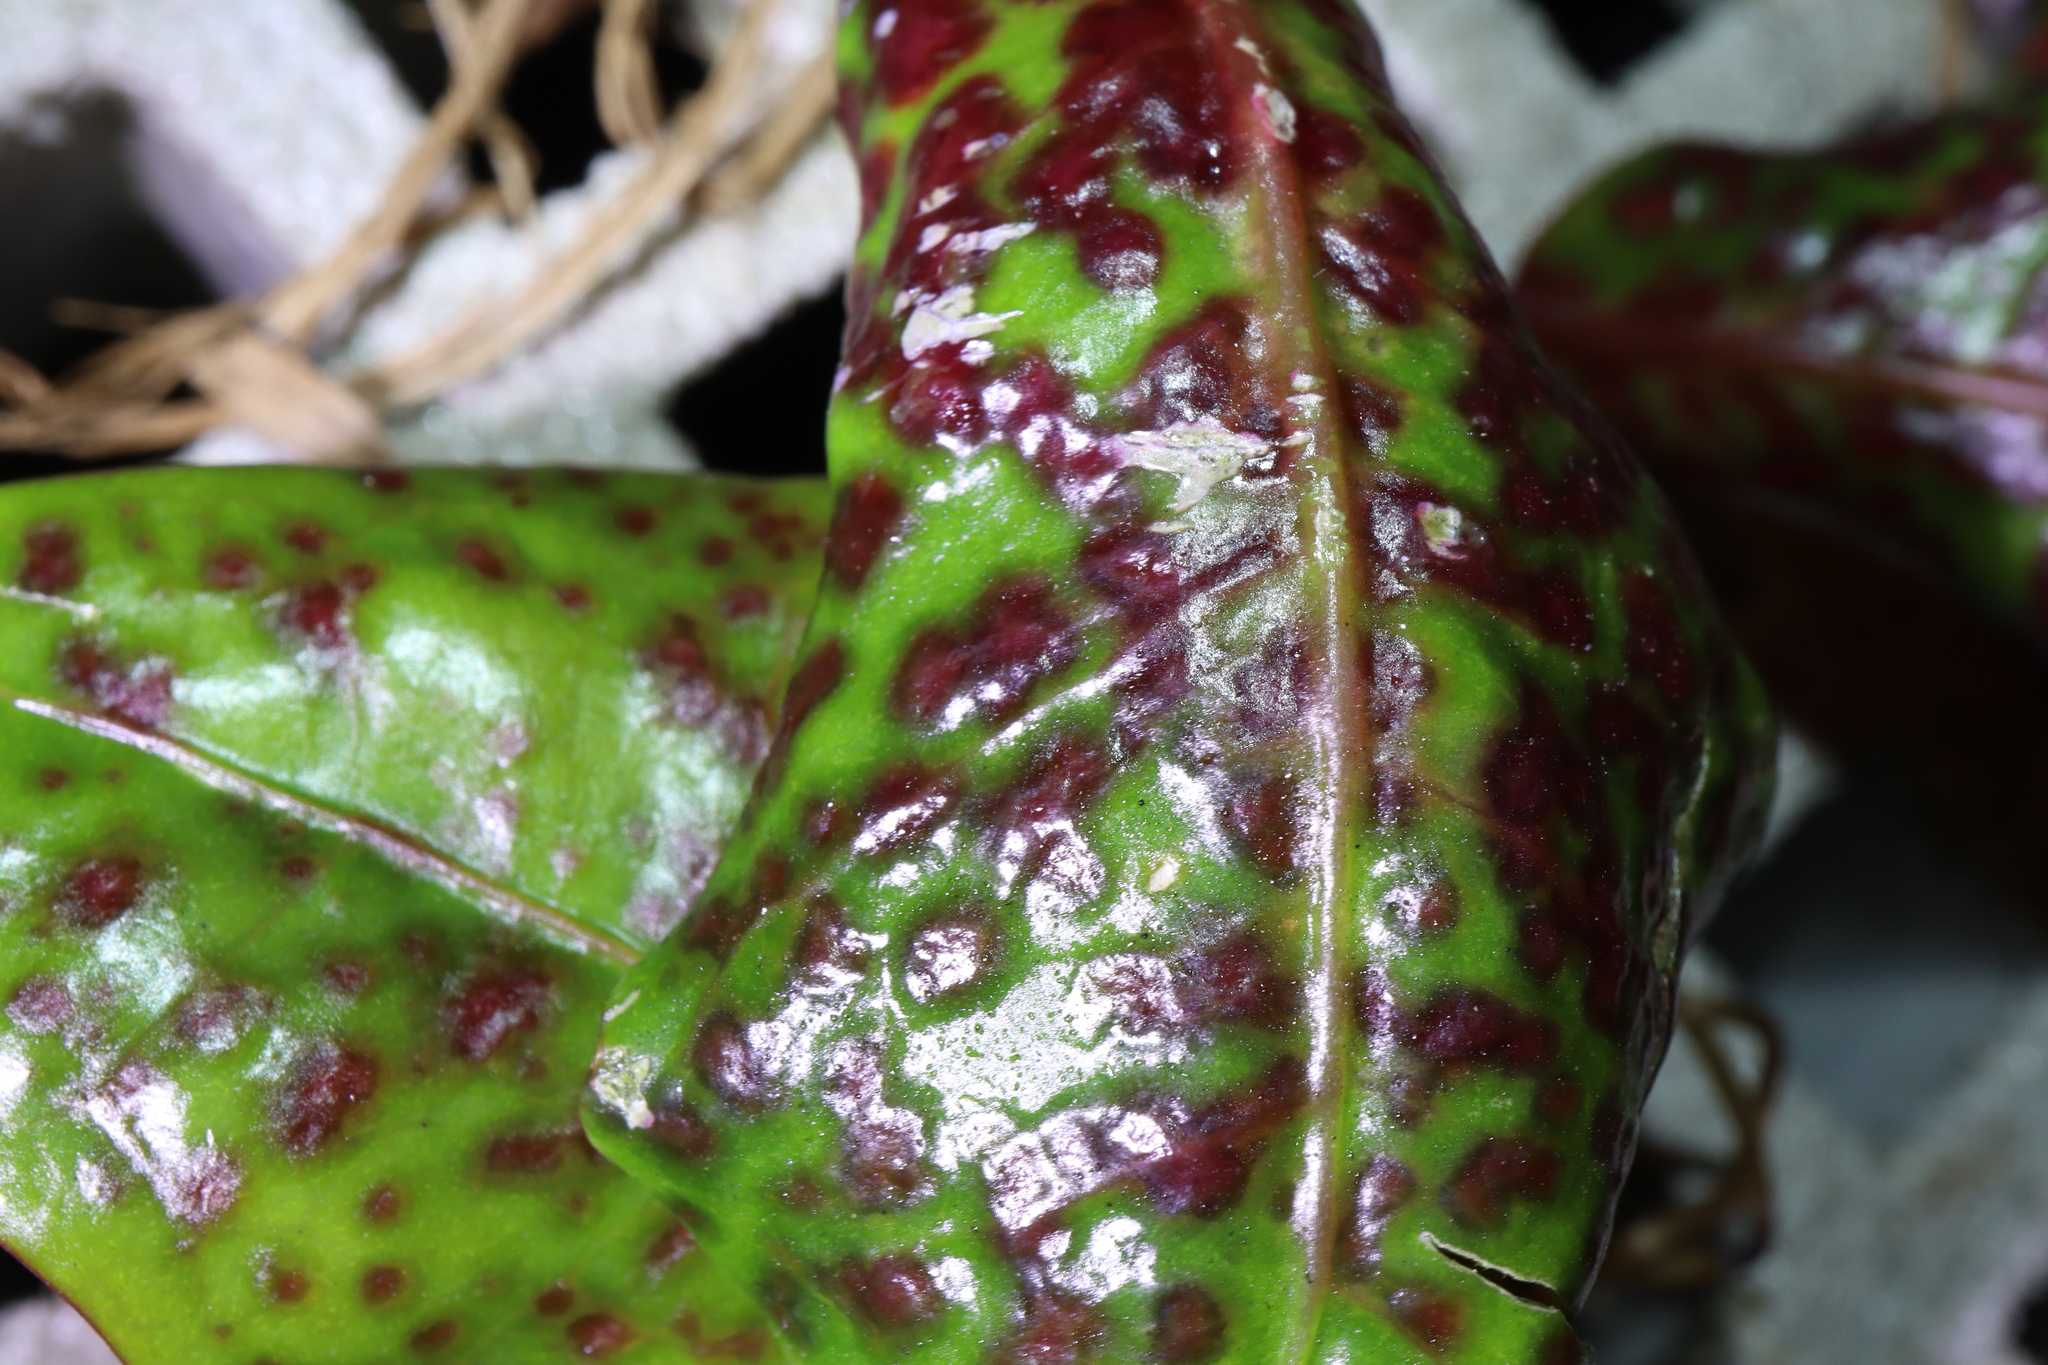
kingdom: Animalia
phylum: Arthropoda
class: Insecta
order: Thysanoptera
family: Phlaeothripidae
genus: Leeuwenia
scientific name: Leeuwenia tetrastigmae
